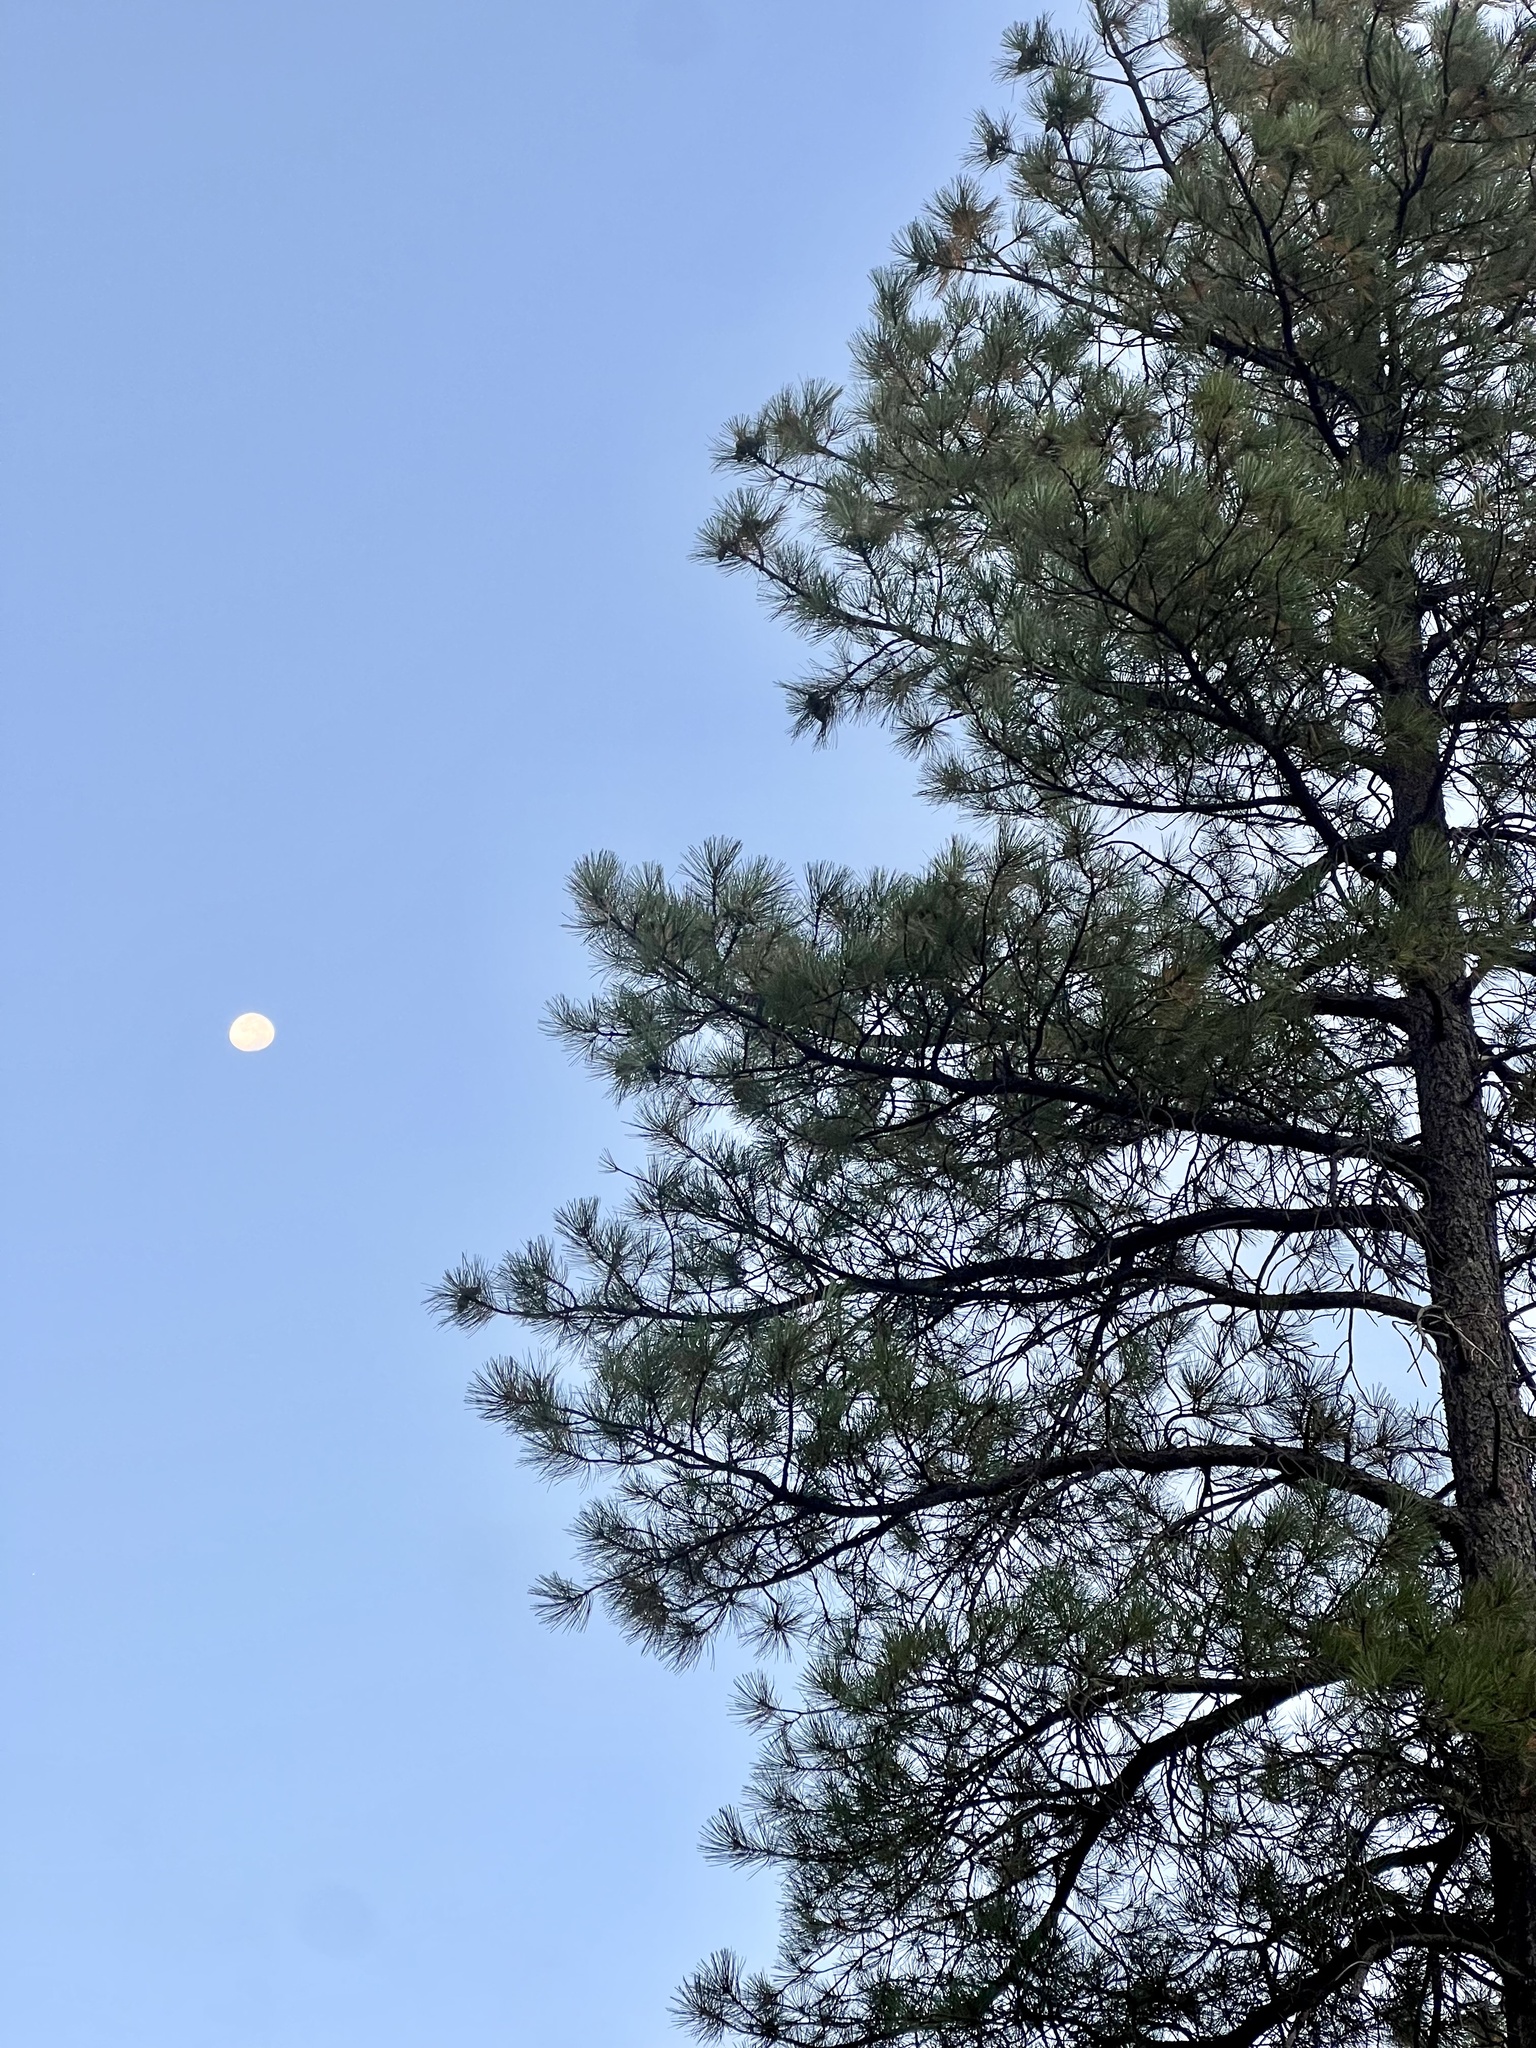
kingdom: Plantae
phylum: Tracheophyta
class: Pinopsida
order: Pinales
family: Pinaceae
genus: Pinus
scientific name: Pinus ponderosa
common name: Western yellow-pine
